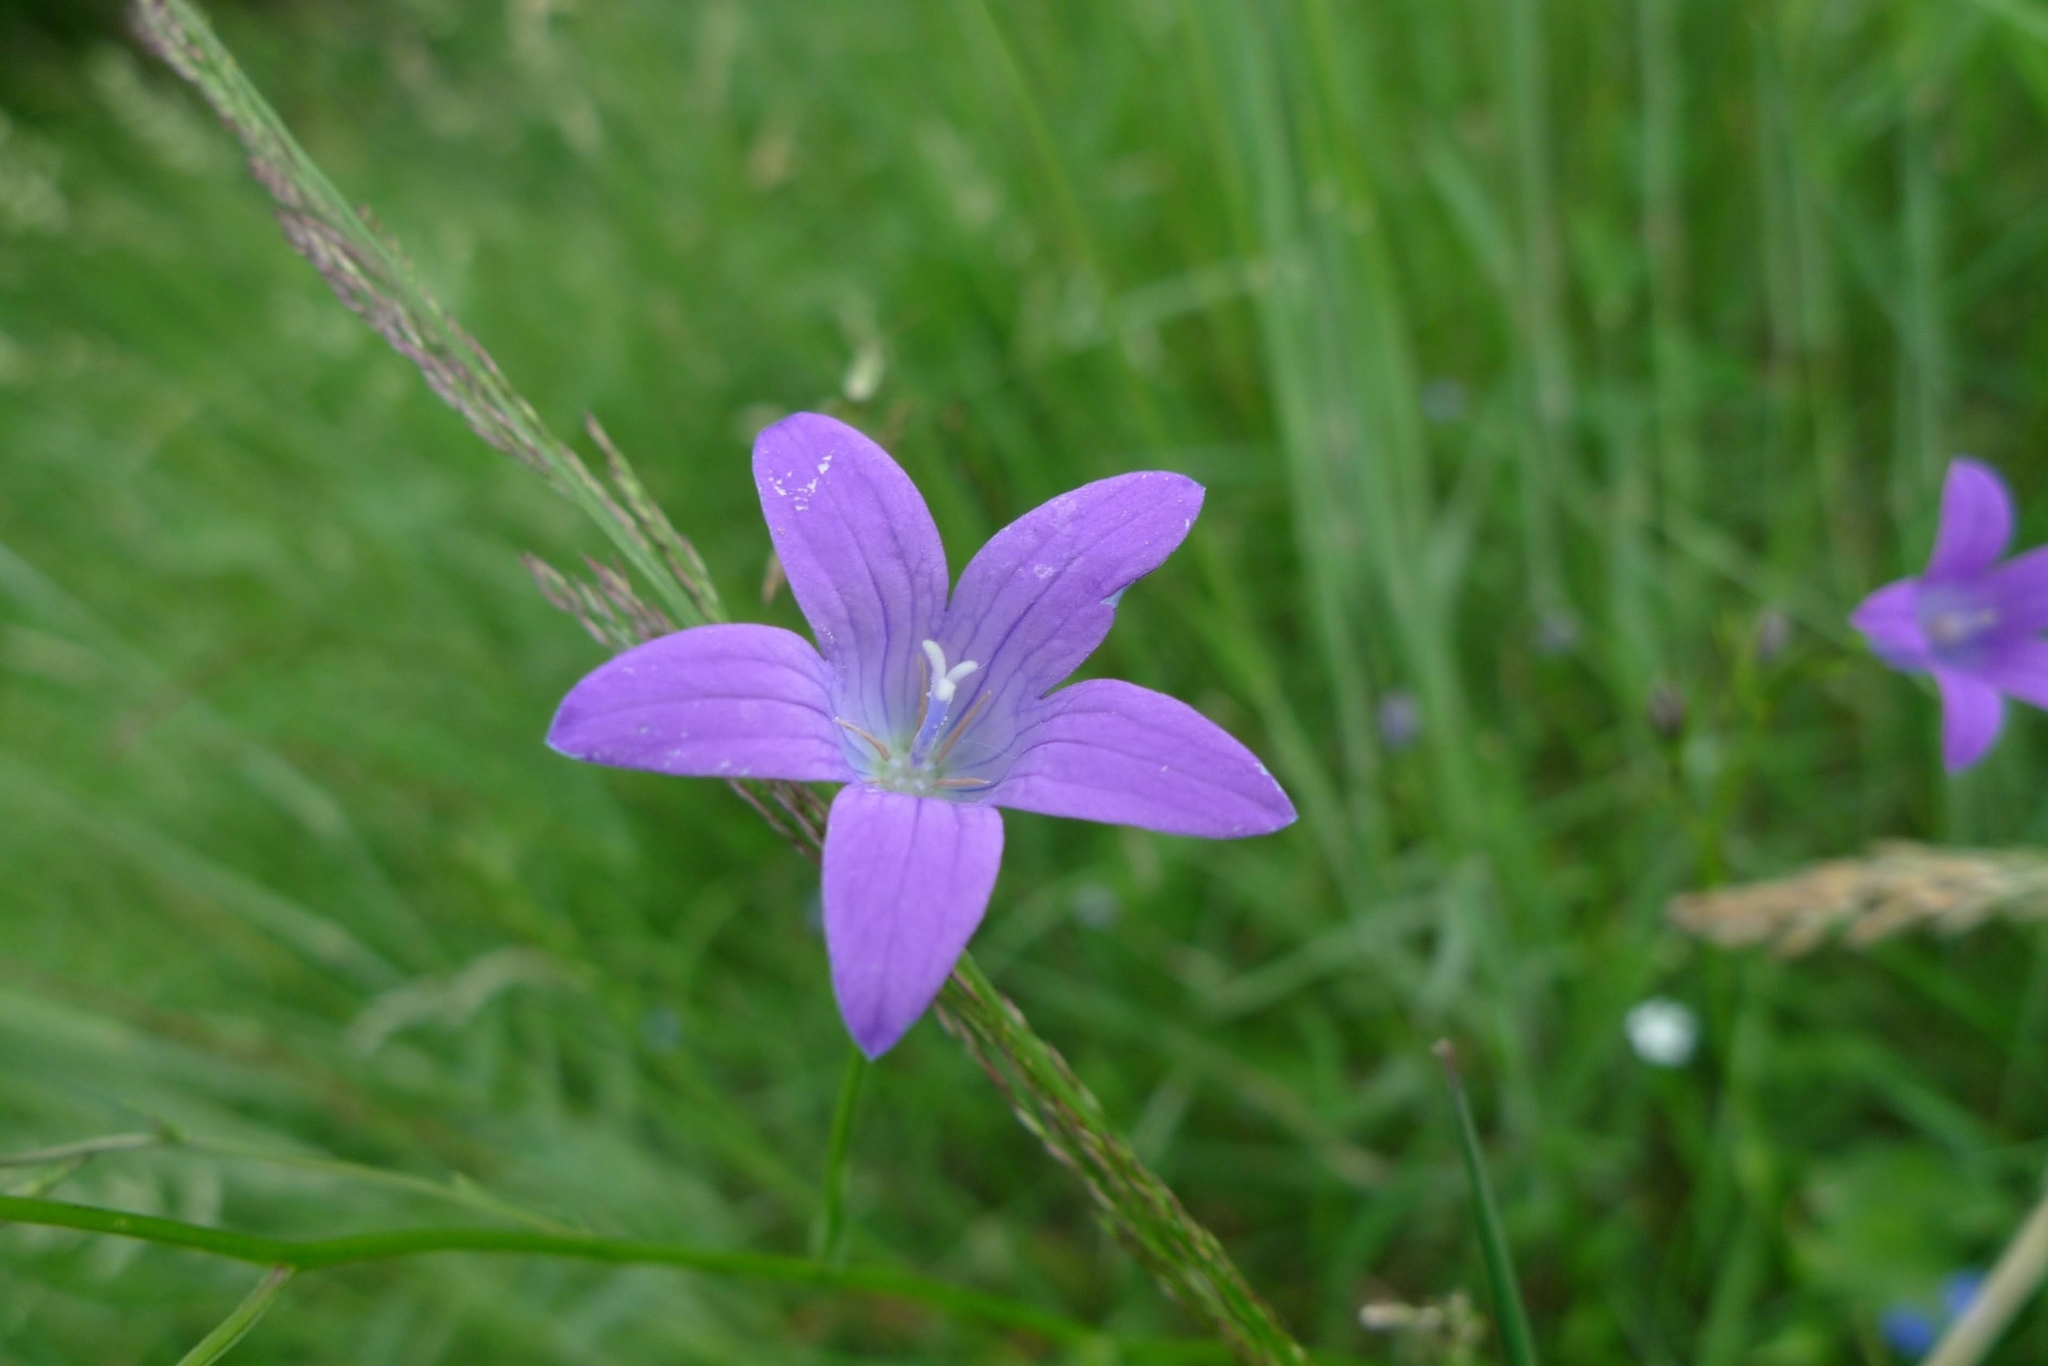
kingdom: Plantae
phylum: Tracheophyta
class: Magnoliopsida
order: Asterales
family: Campanulaceae
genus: Campanula
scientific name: Campanula patula
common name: Spreading bellflower
